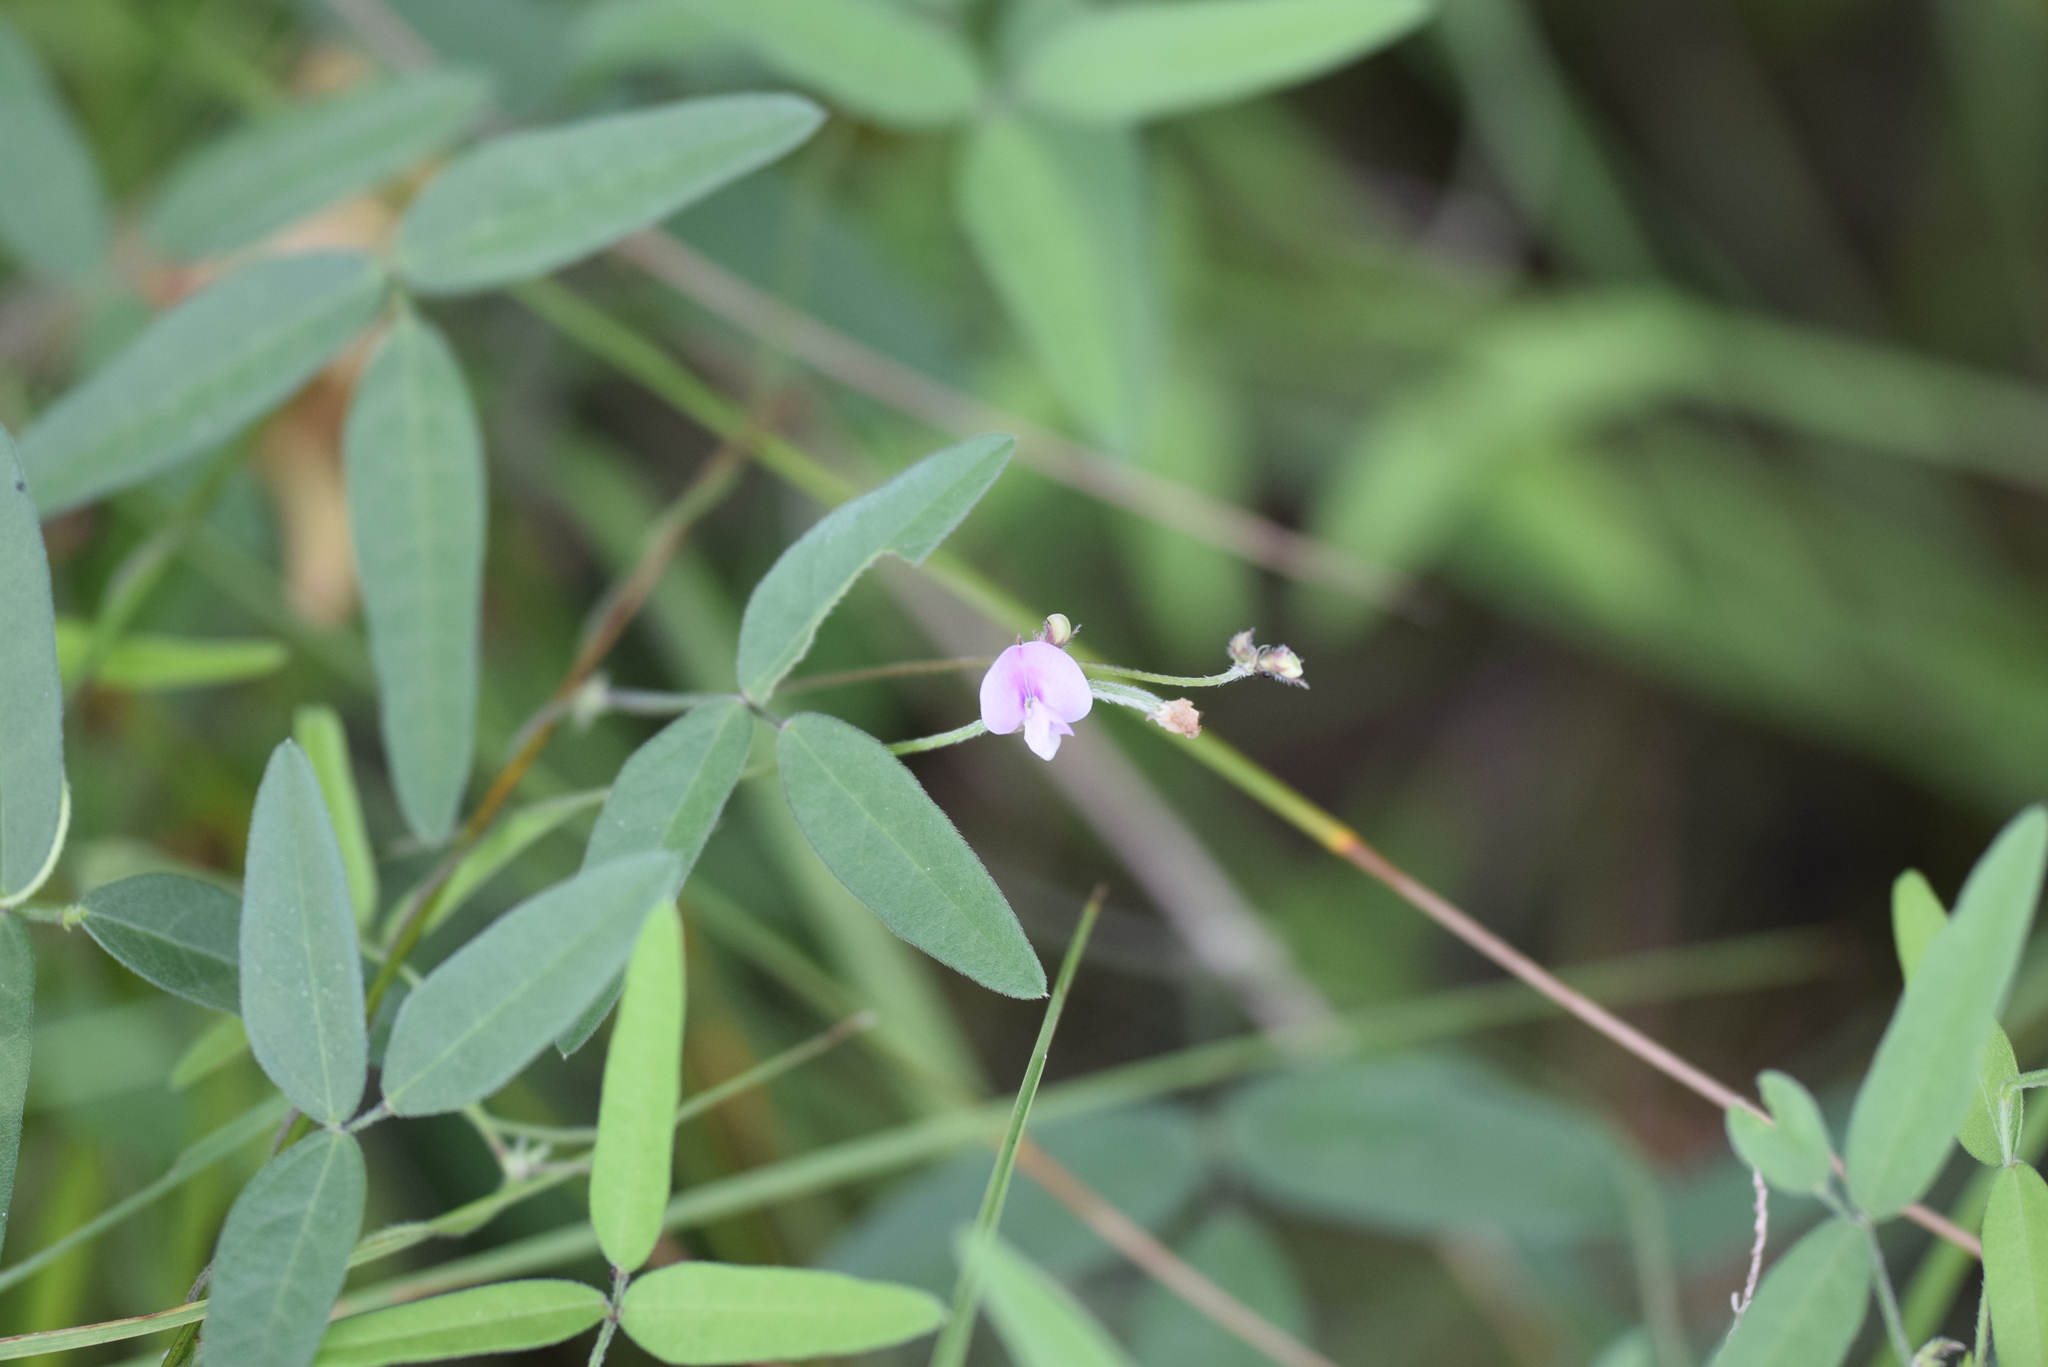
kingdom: Plantae
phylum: Tracheophyta
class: Magnoliopsida
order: Fabales
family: Fabaceae
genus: Strophostyles
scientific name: Strophostyles leiosperma
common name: Smooth-seed wild bean
